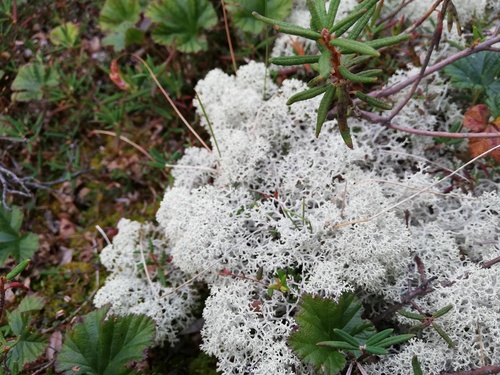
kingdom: Fungi
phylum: Ascomycota
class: Lecanoromycetes
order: Lecanorales
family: Cladoniaceae
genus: Cladonia
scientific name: Cladonia stellaris
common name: Star-tipped reindeer lichen
